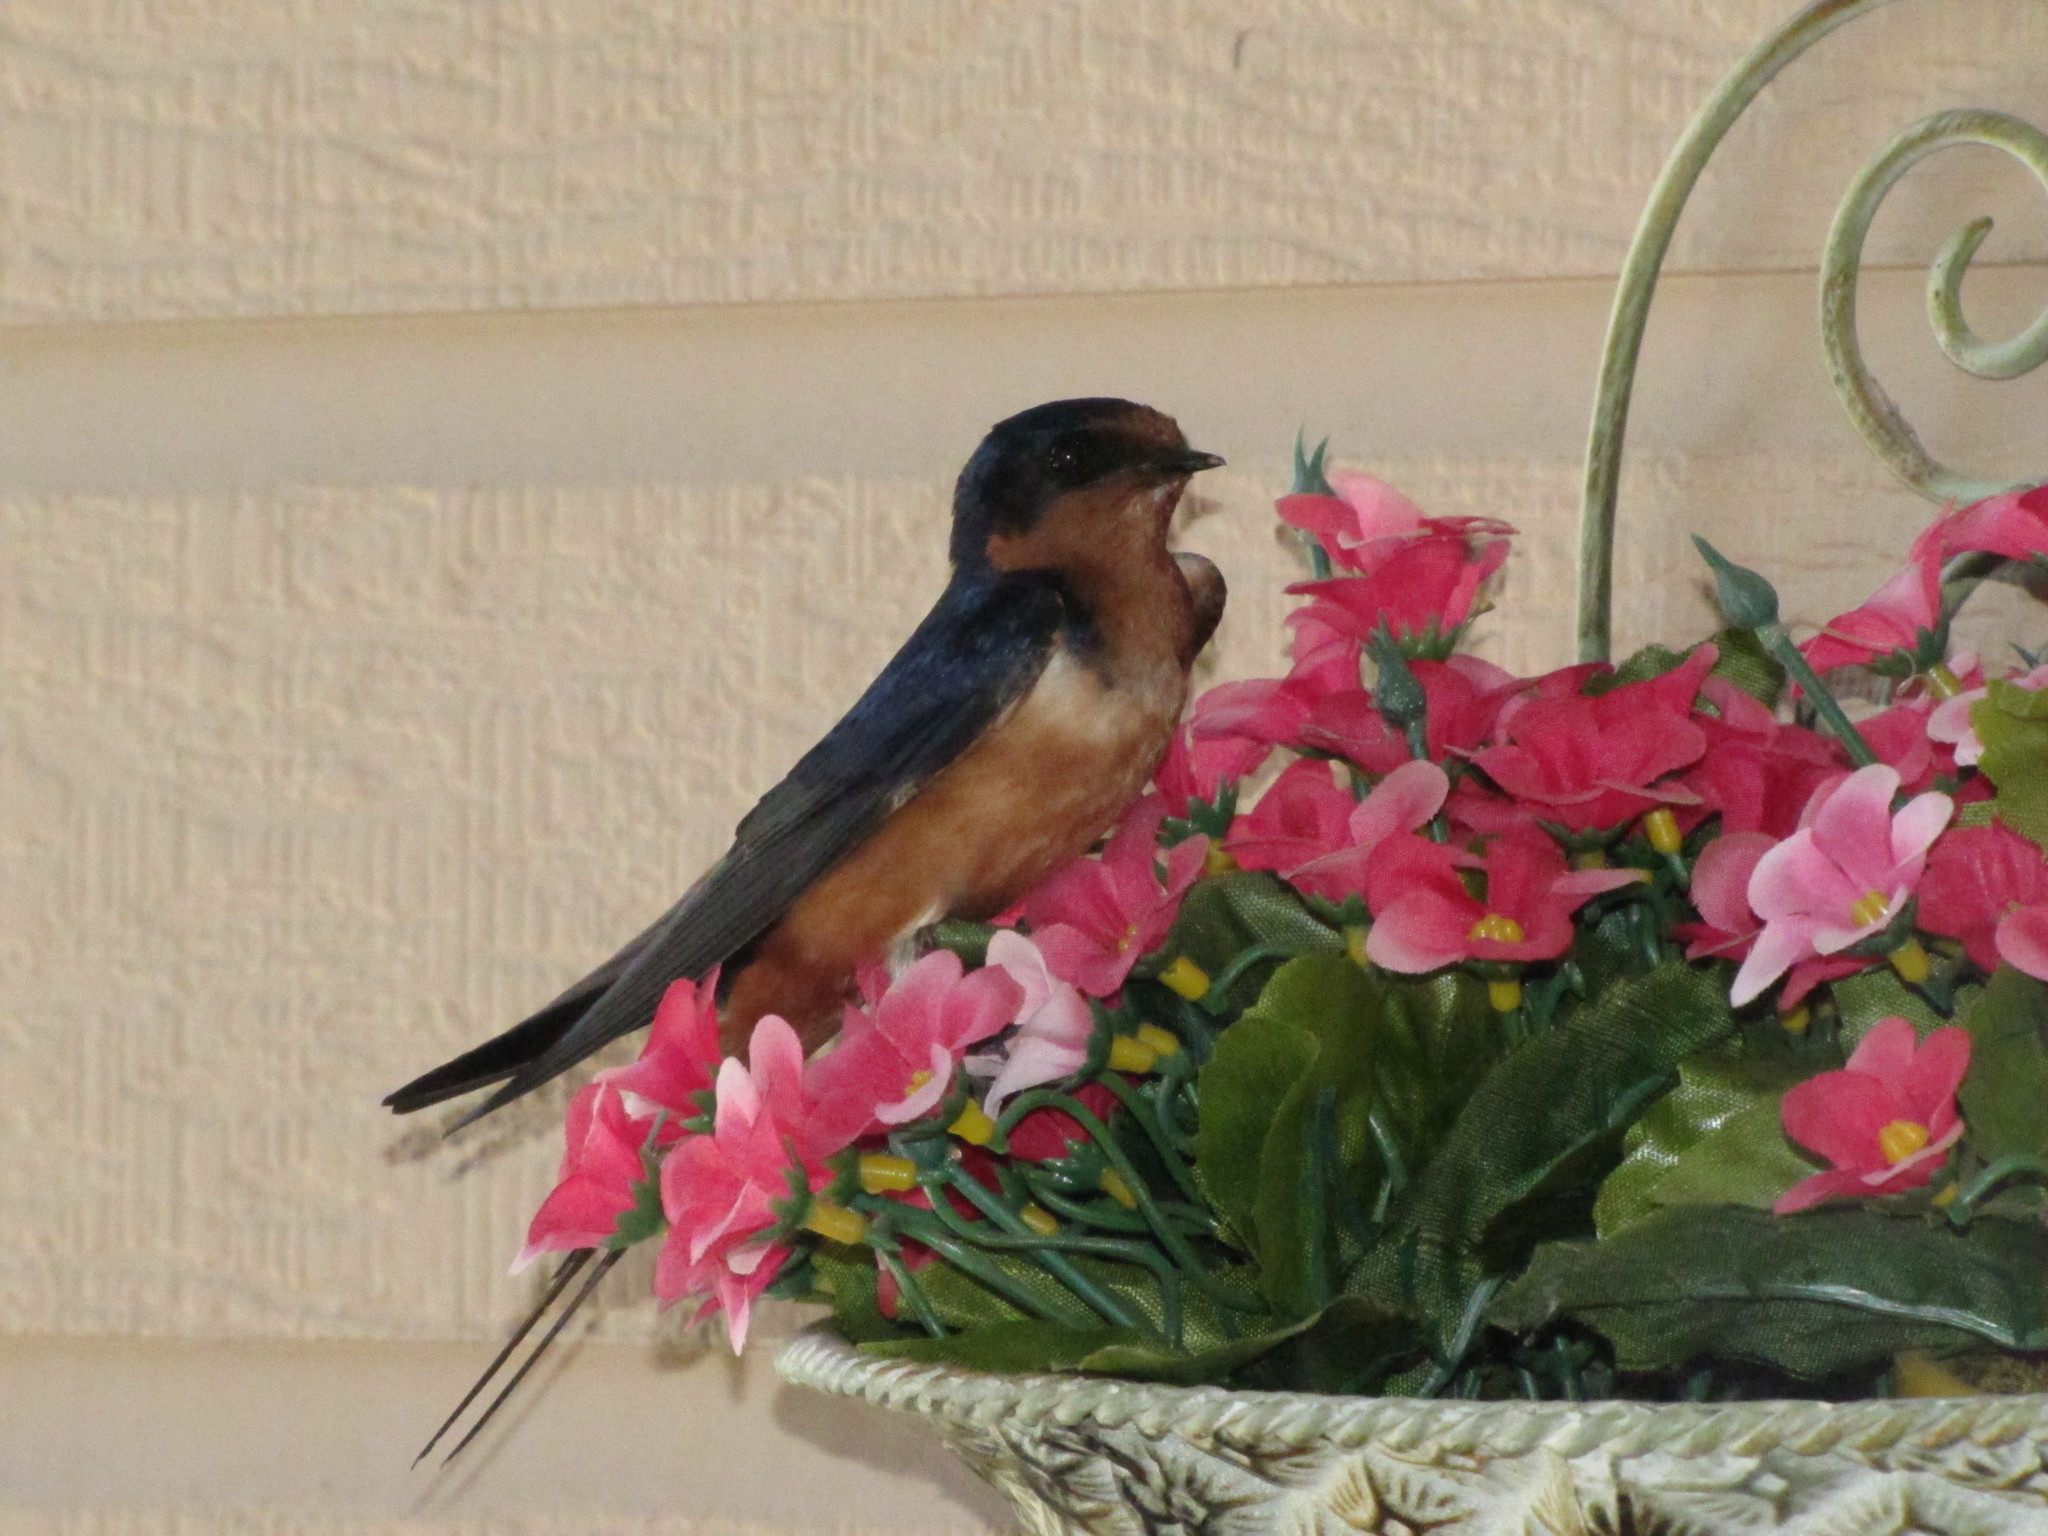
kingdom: Animalia
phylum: Chordata
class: Aves
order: Passeriformes
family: Hirundinidae
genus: Hirundo
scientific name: Hirundo rustica
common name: Barn swallow
